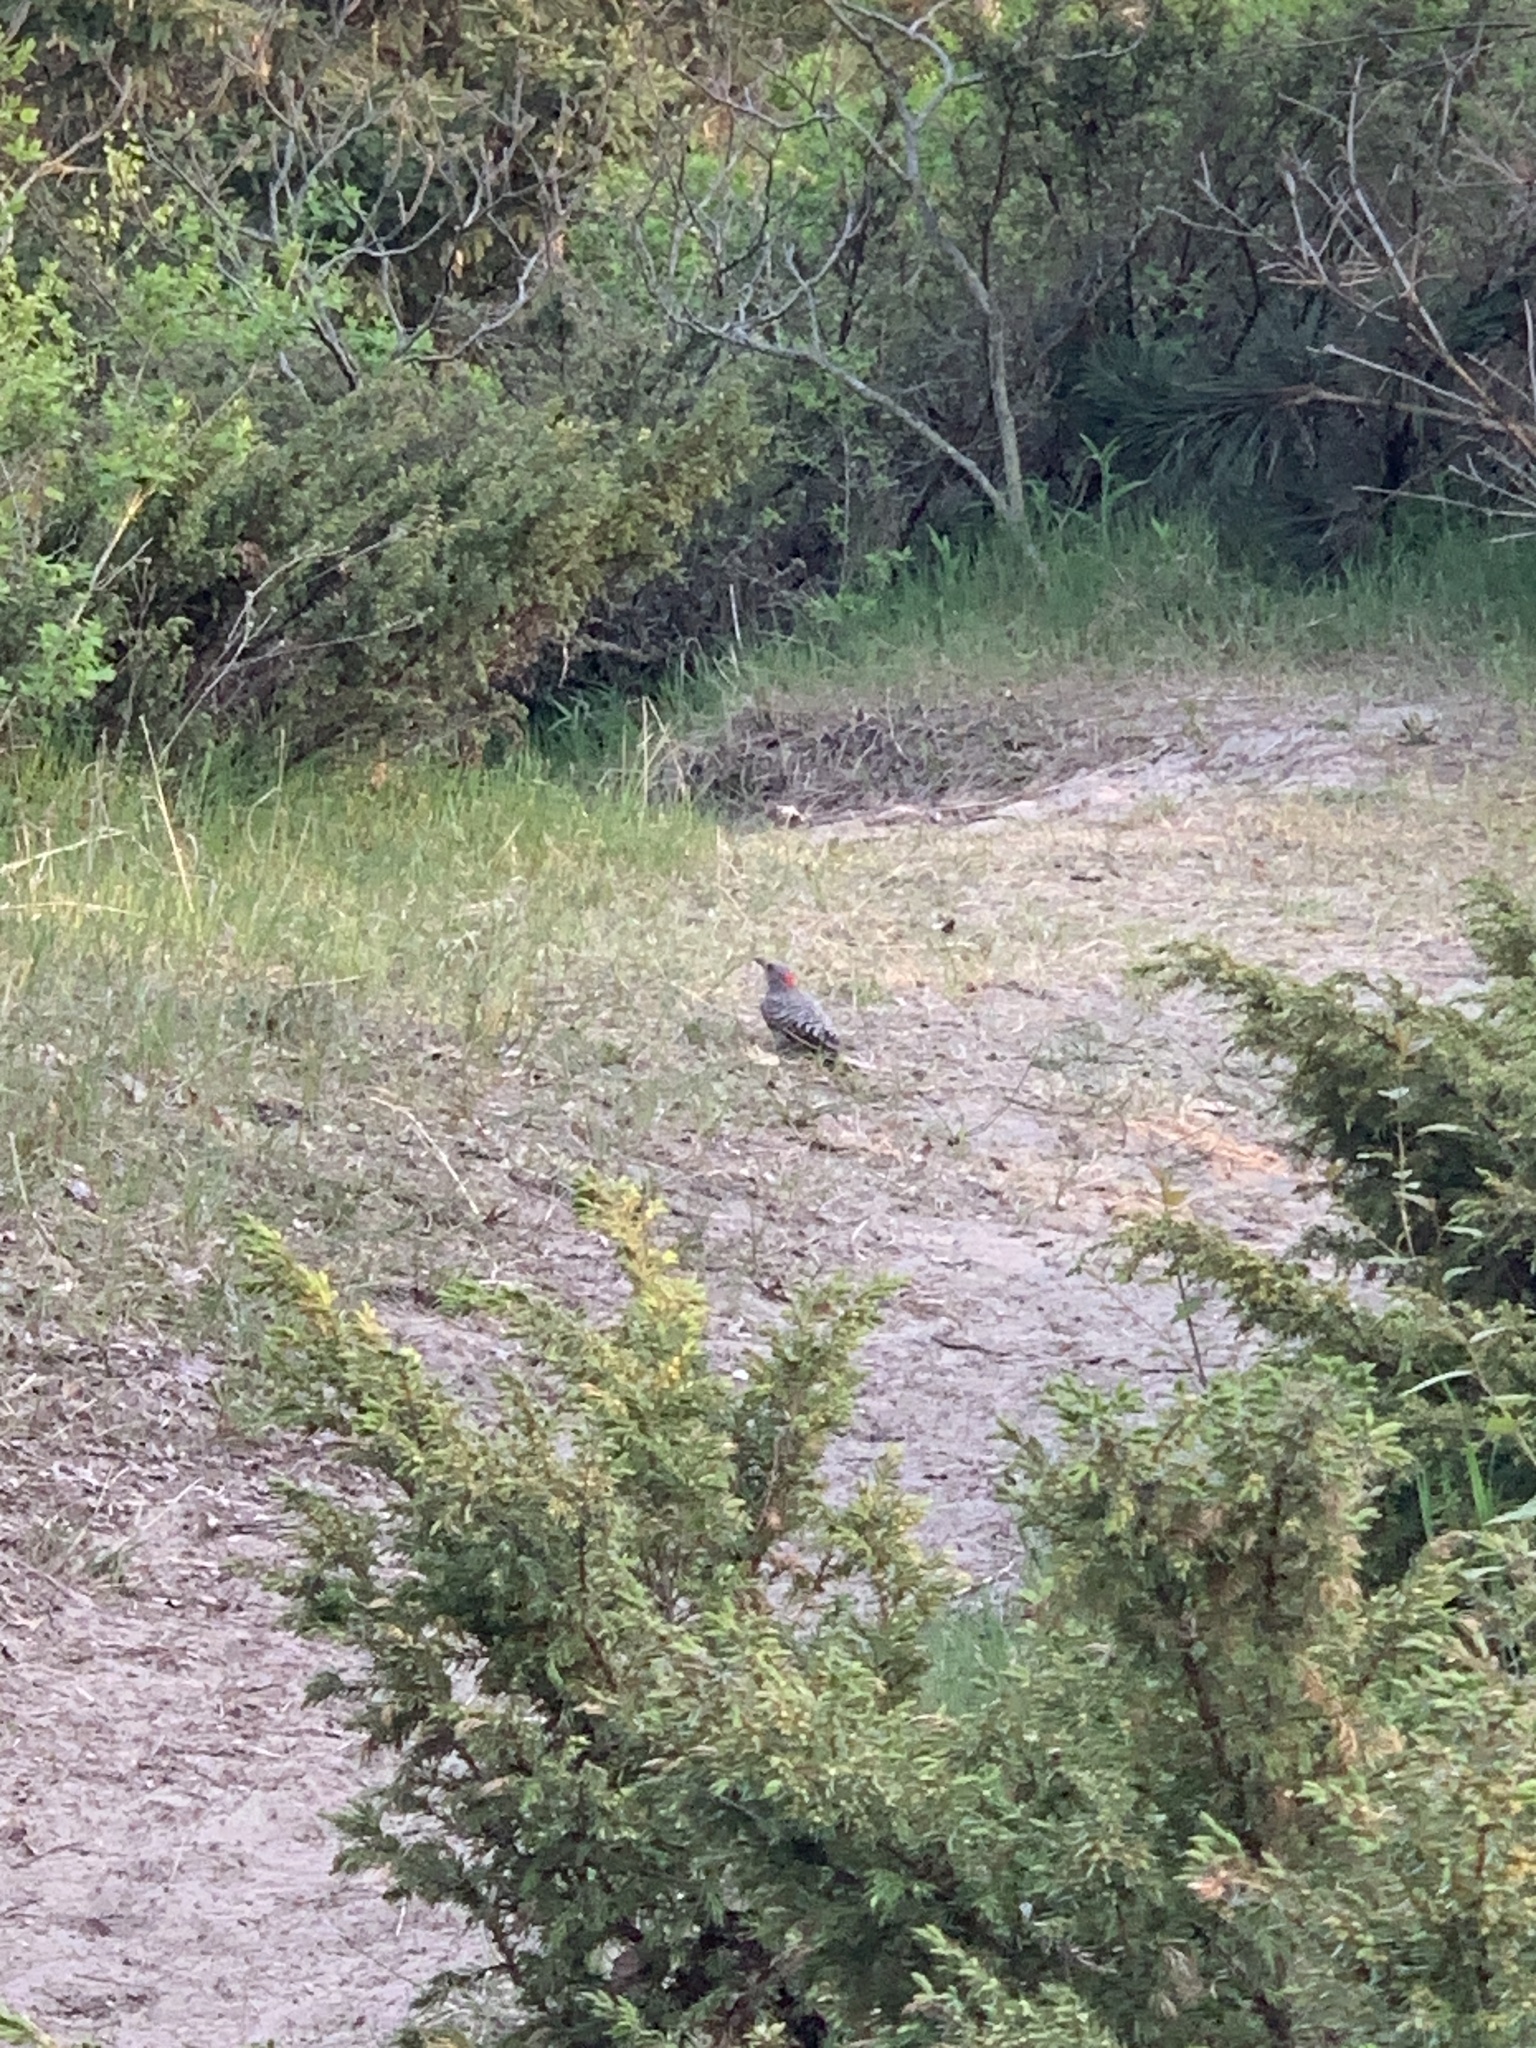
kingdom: Animalia
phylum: Chordata
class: Aves
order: Piciformes
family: Picidae
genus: Colaptes
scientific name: Colaptes auratus
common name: Northern flicker
